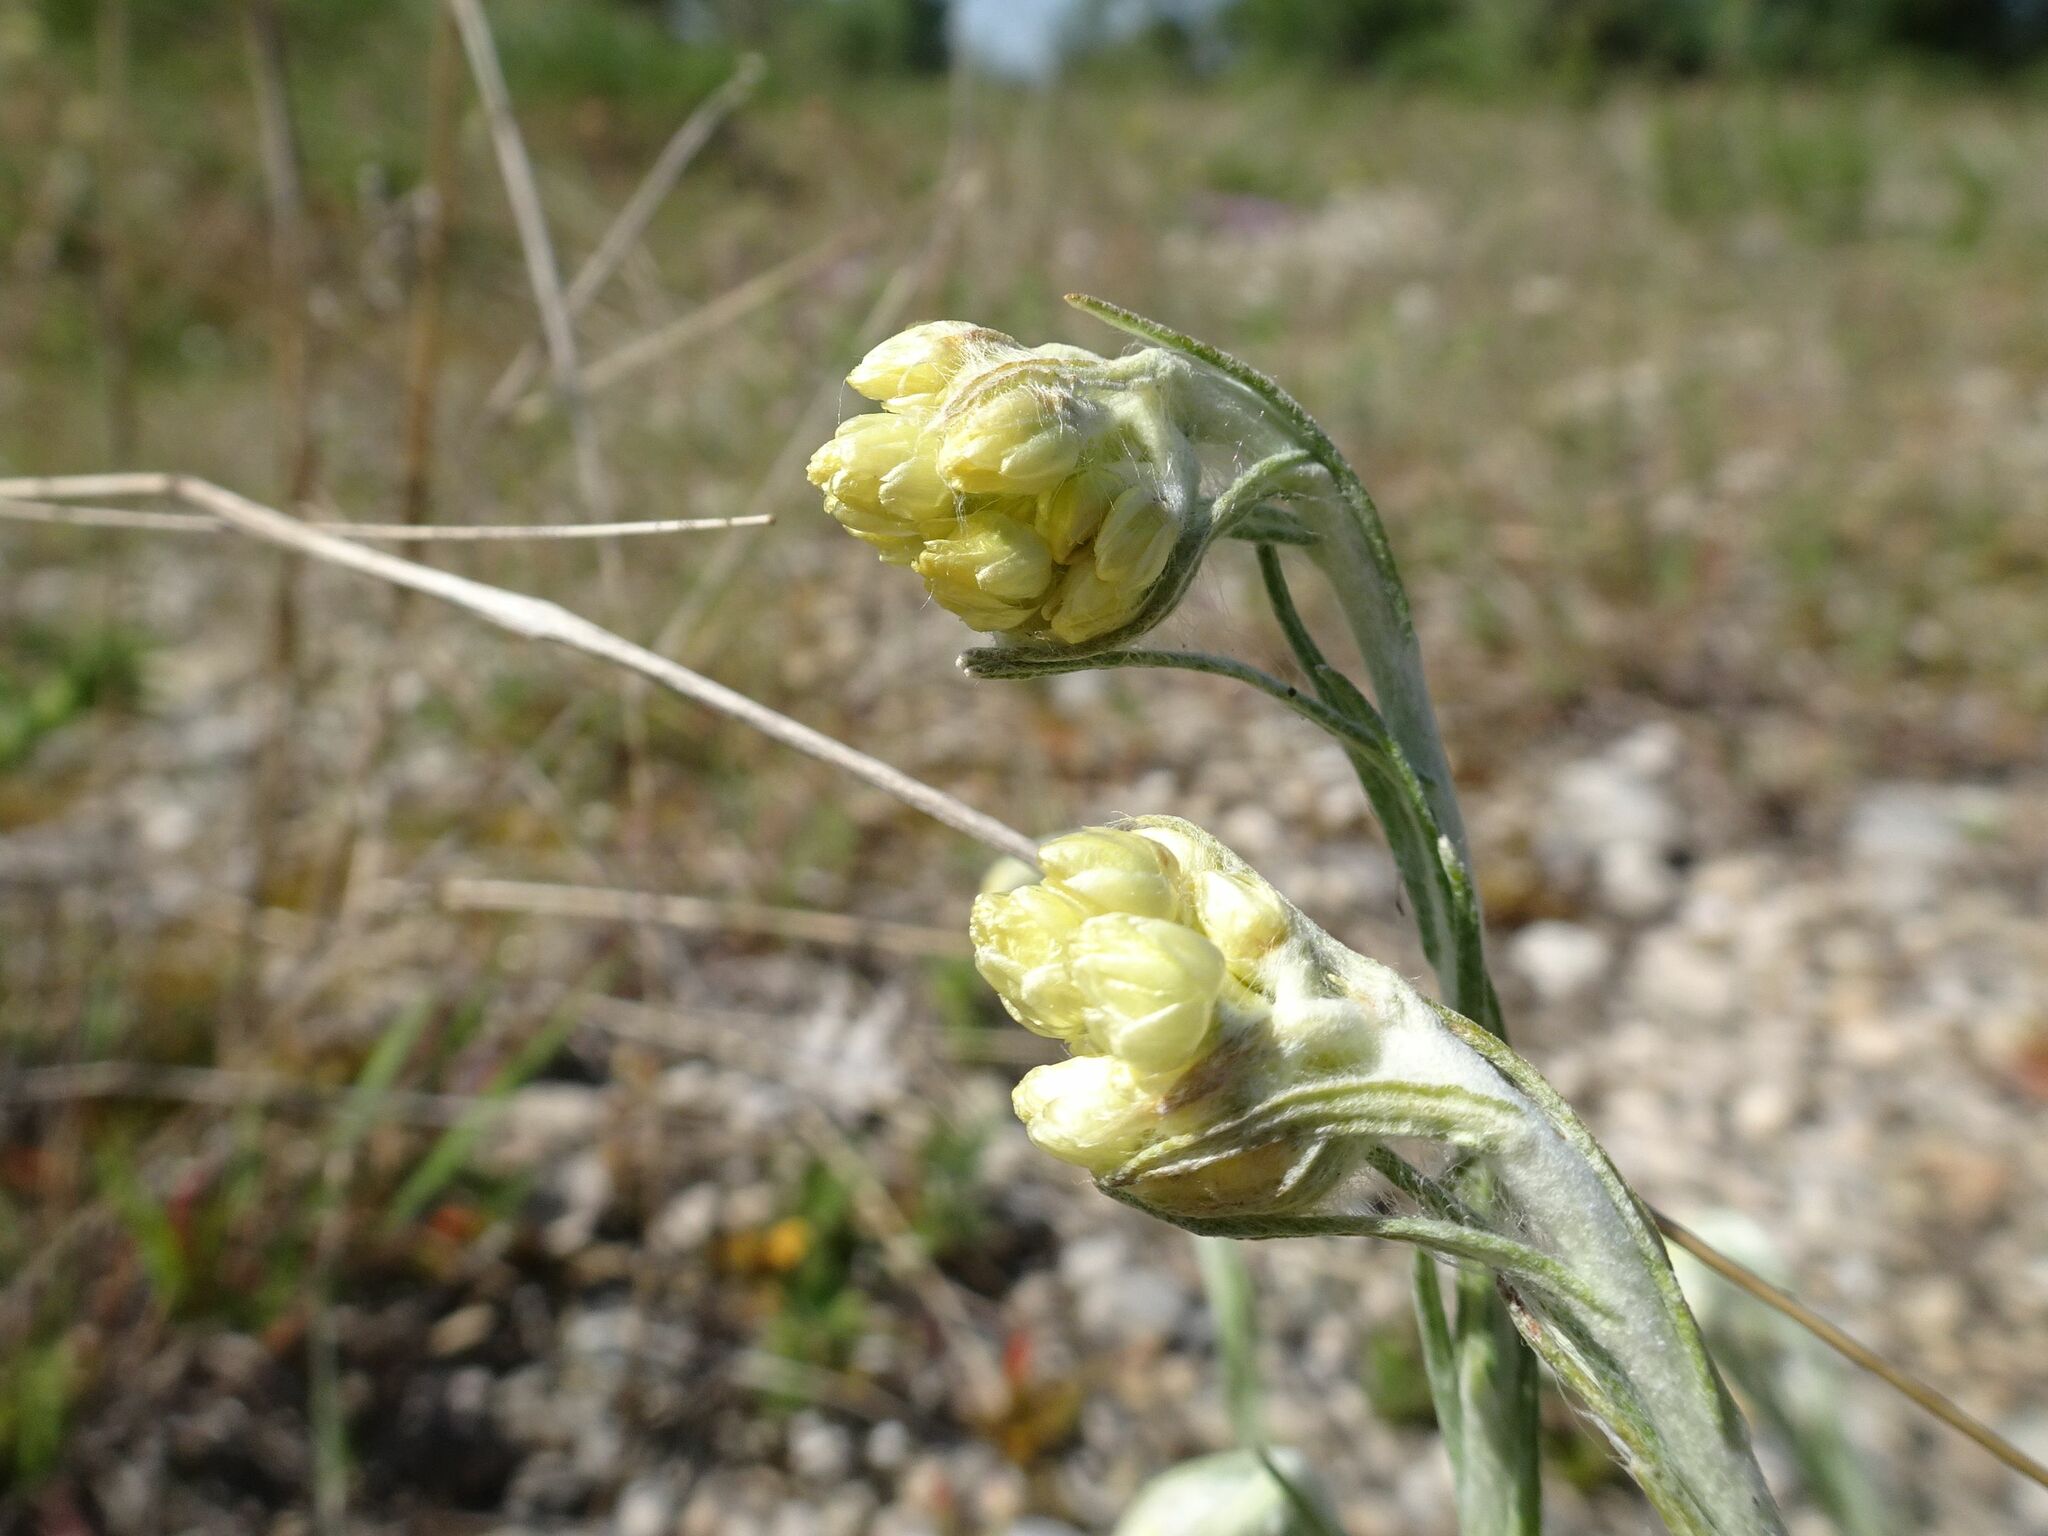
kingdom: Plantae
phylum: Tracheophyta
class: Magnoliopsida
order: Asterales
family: Asteraceae
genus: Helichrysum
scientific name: Helichrysum stoechas
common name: Goldilocks
